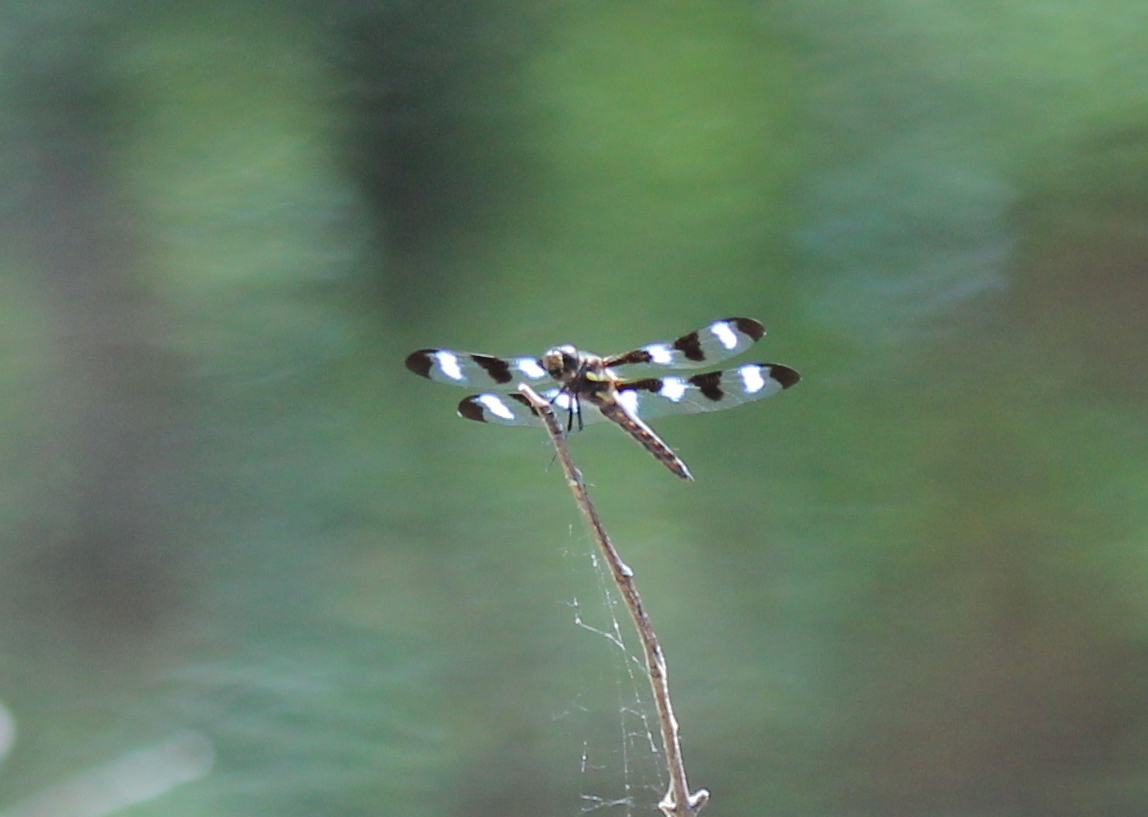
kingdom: Animalia
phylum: Arthropoda
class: Insecta
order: Odonata
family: Libellulidae
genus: Libellula
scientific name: Libellula pulchella
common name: Twelve-spotted skimmer
